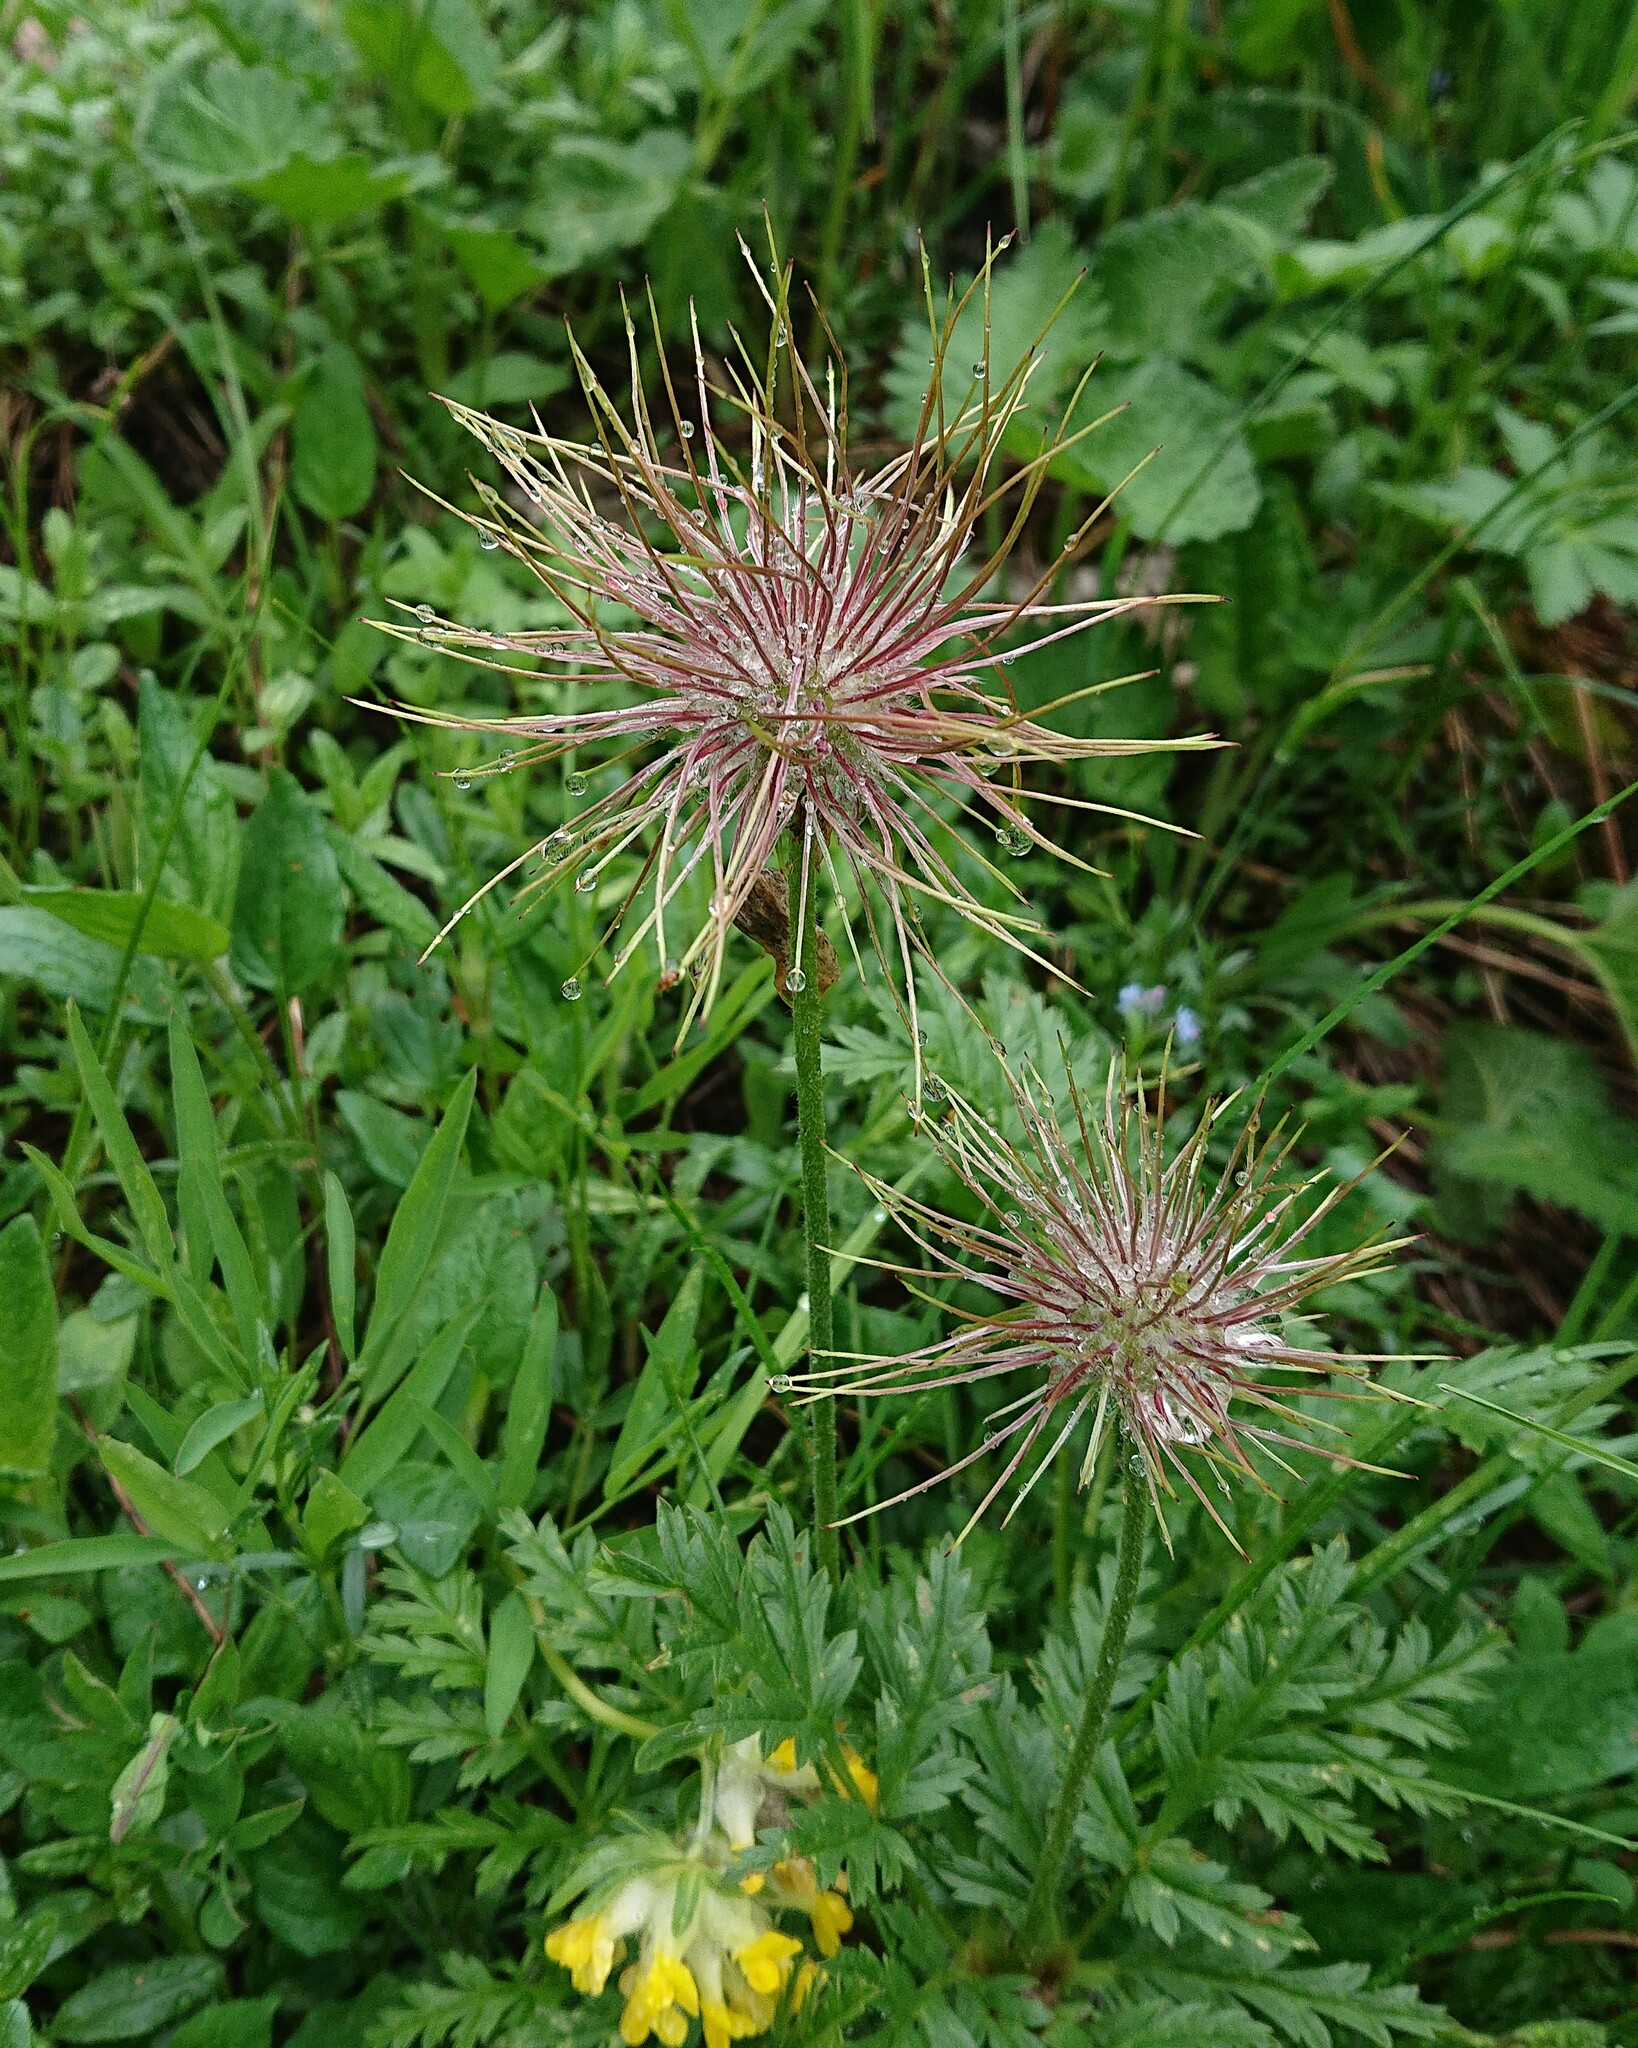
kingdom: Plantae
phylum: Tracheophyta
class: Magnoliopsida
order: Ranunculales
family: Ranunculaceae
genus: Pulsatilla
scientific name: Pulsatilla alpina
